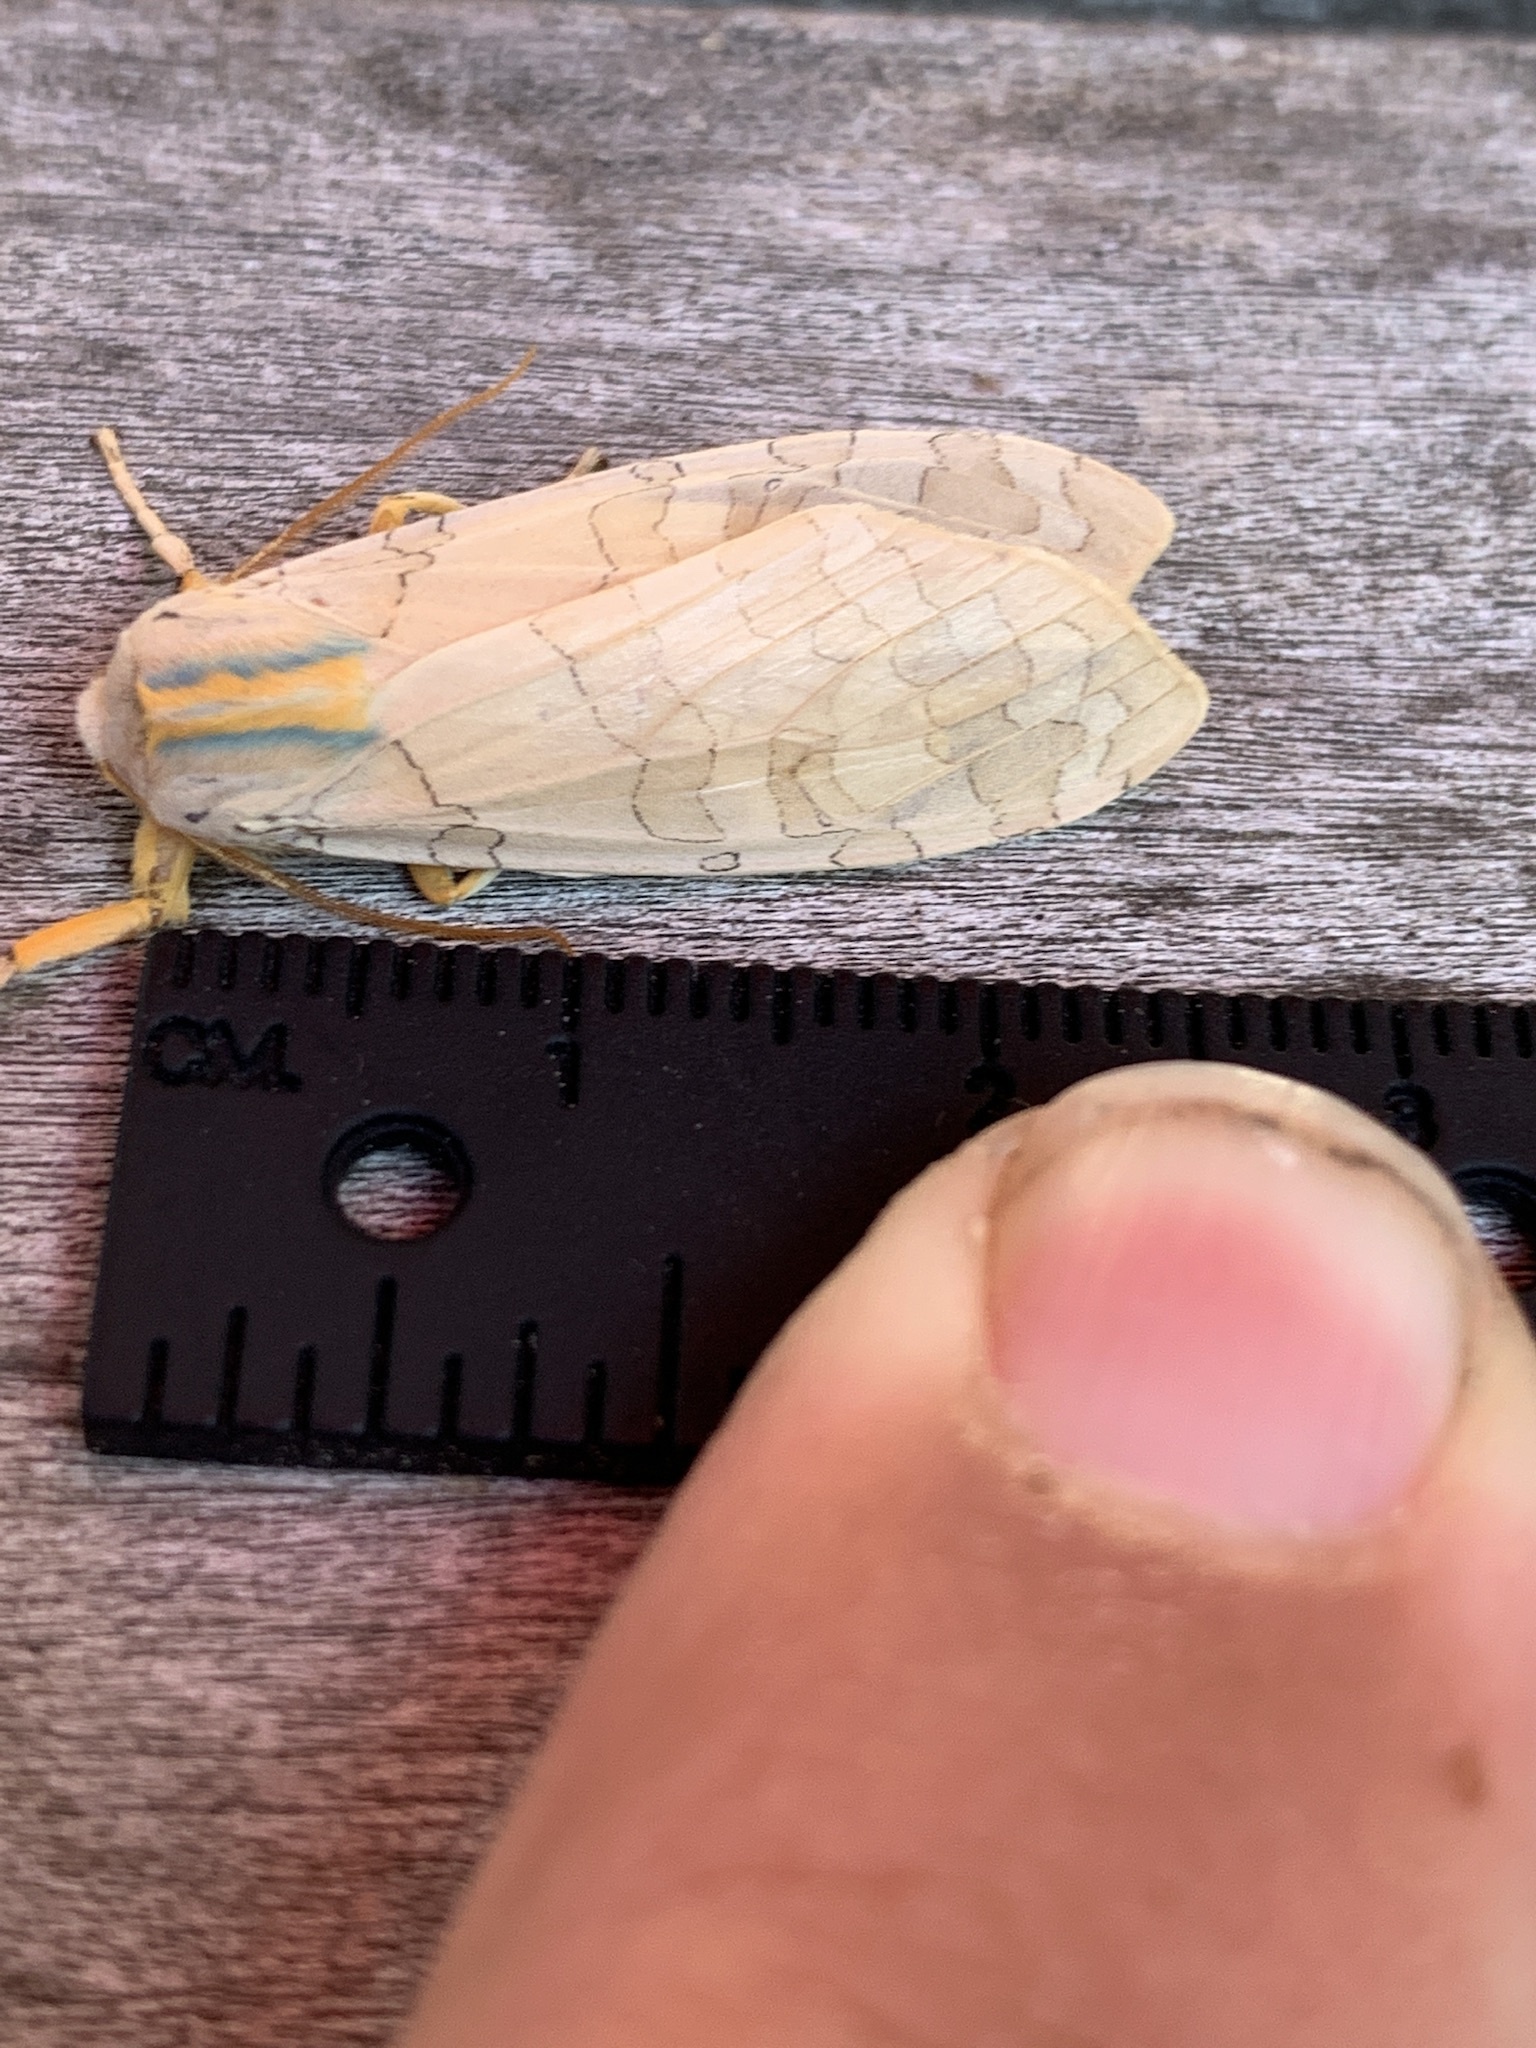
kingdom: Animalia
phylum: Arthropoda
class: Insecta
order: Lepidoptera
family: Erebidae
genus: Halysidota
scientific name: Halysidota
